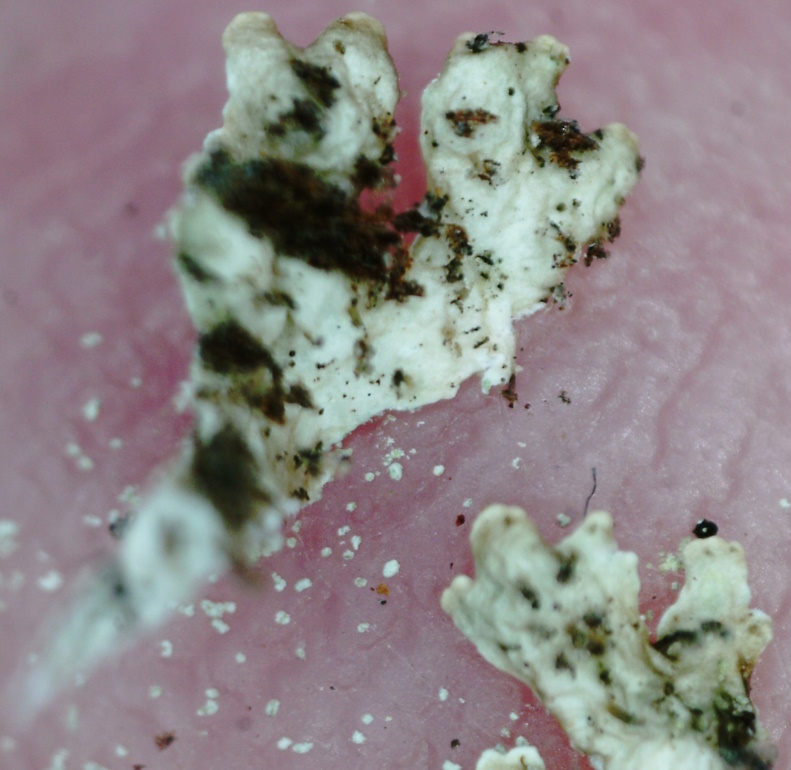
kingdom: Fungi
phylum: Ascomycota
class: Lecanoromycetes
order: Lecanorales
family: Parmeliaceae
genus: Imshaugia
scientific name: Imshaugia aleurites
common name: Salted starburst lichen
